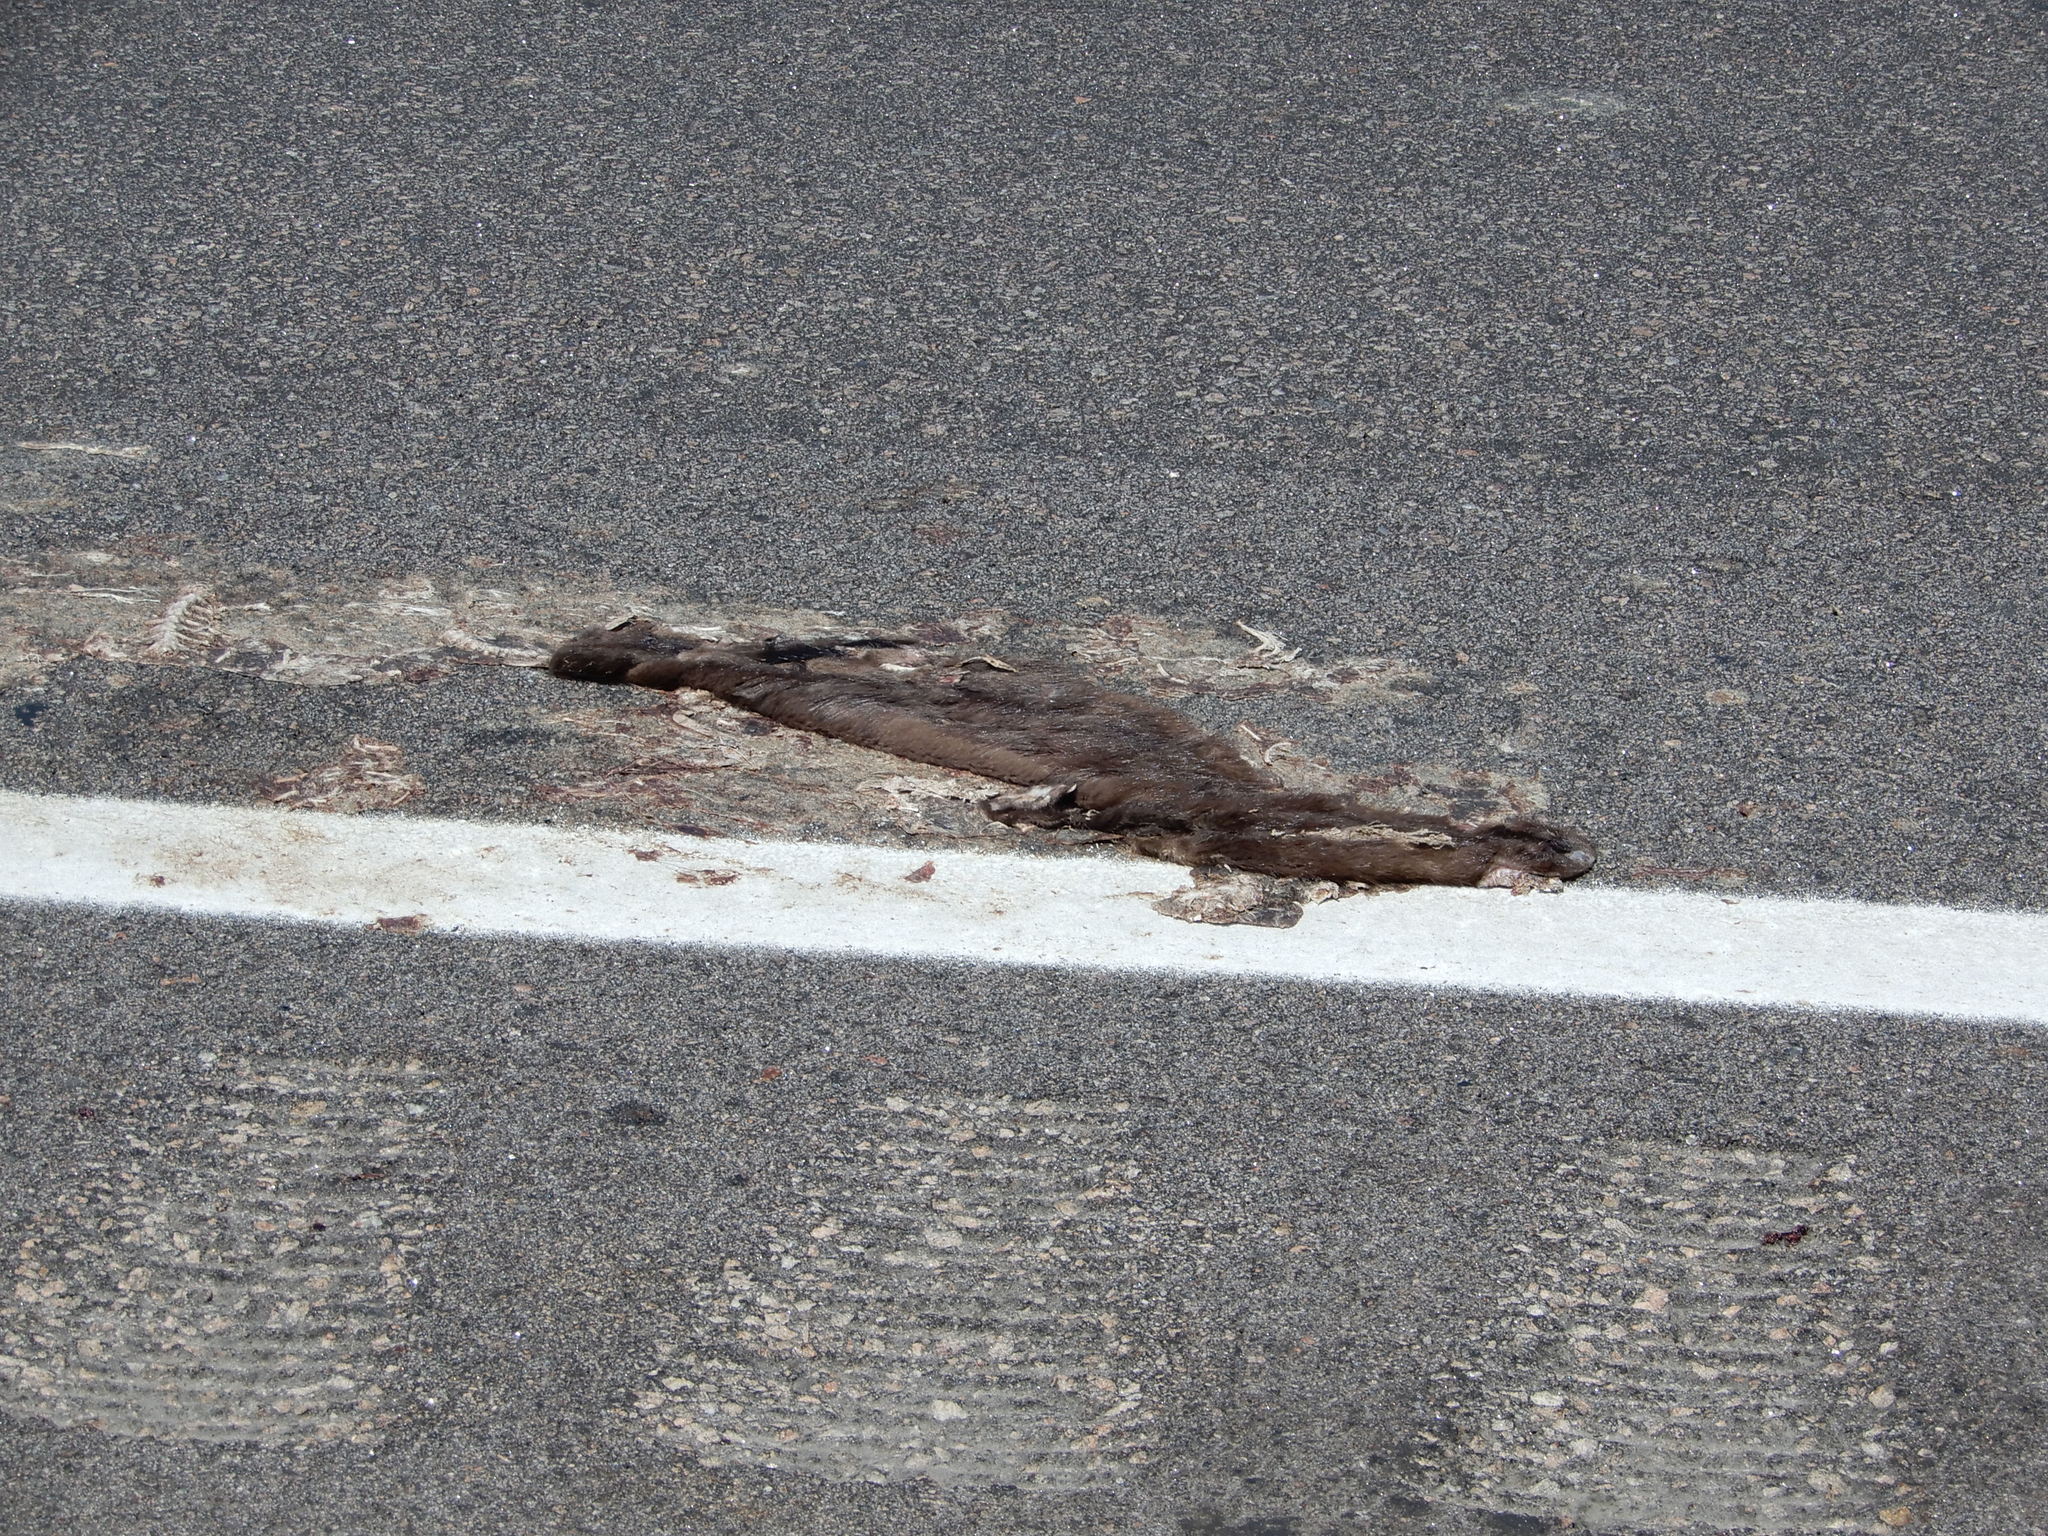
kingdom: Animalia
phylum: Chordata
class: Mammalia
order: Carnivora
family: Mustelidae
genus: Mustela
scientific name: Mustela
